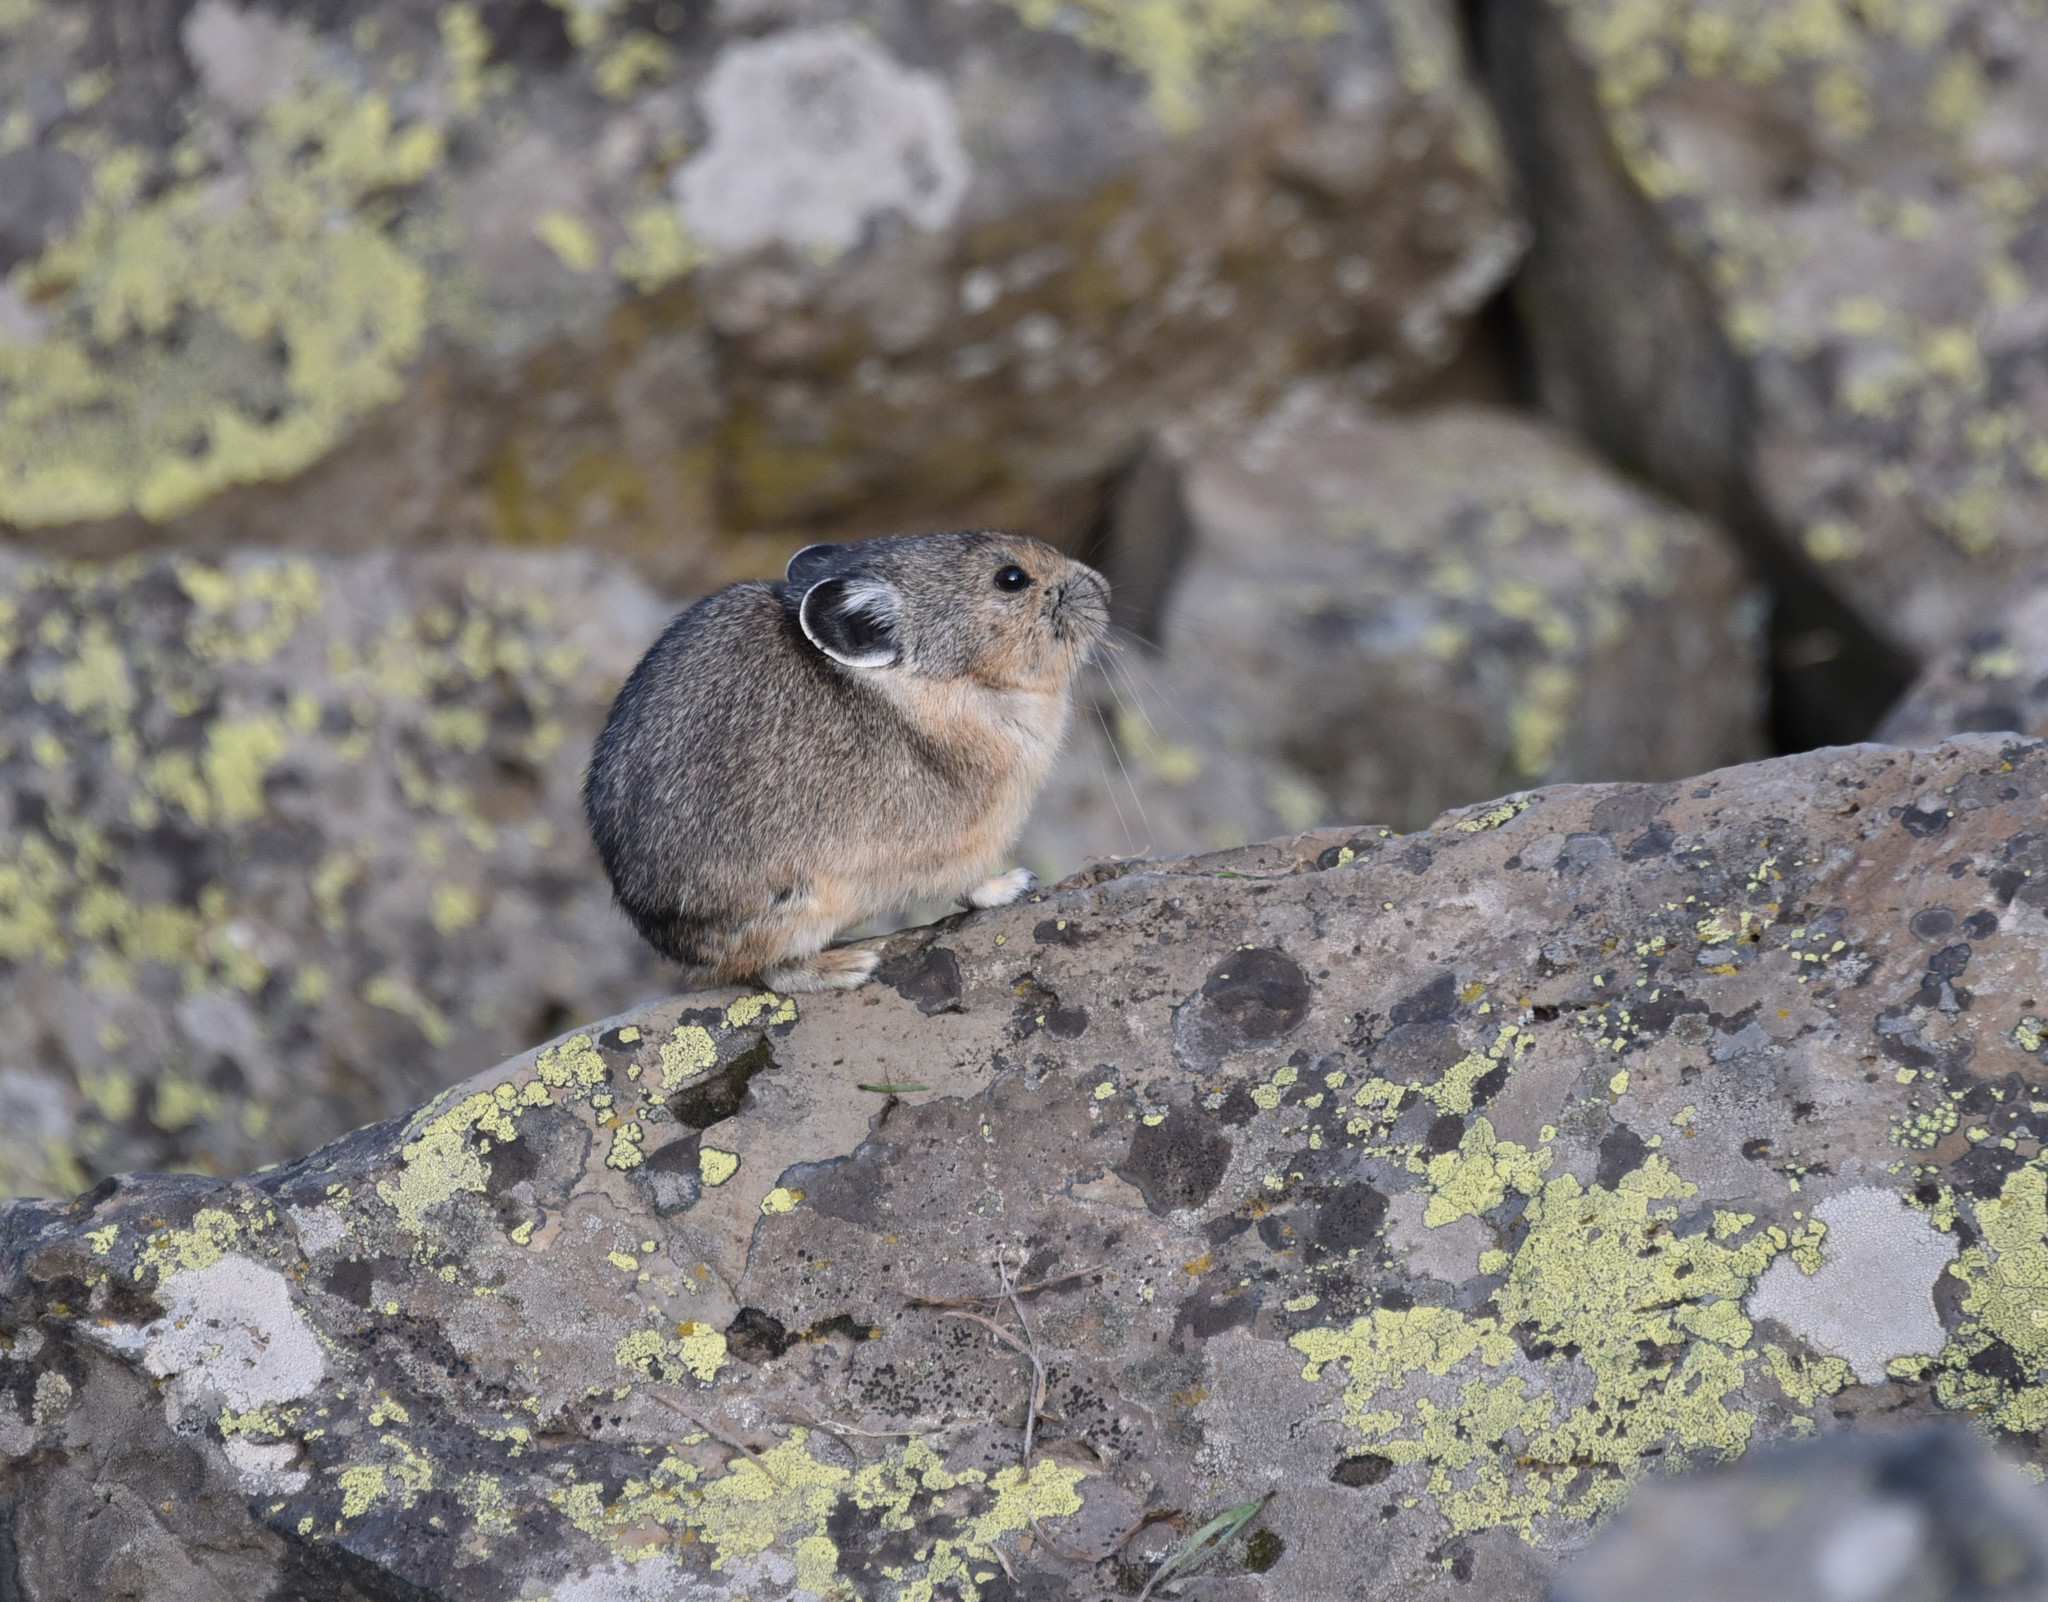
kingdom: Animalia
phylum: Chordata
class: Mammalia
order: Lagomorpha
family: Ochotonidae
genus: Ochotona
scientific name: Ochotona princeps
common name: American pika
